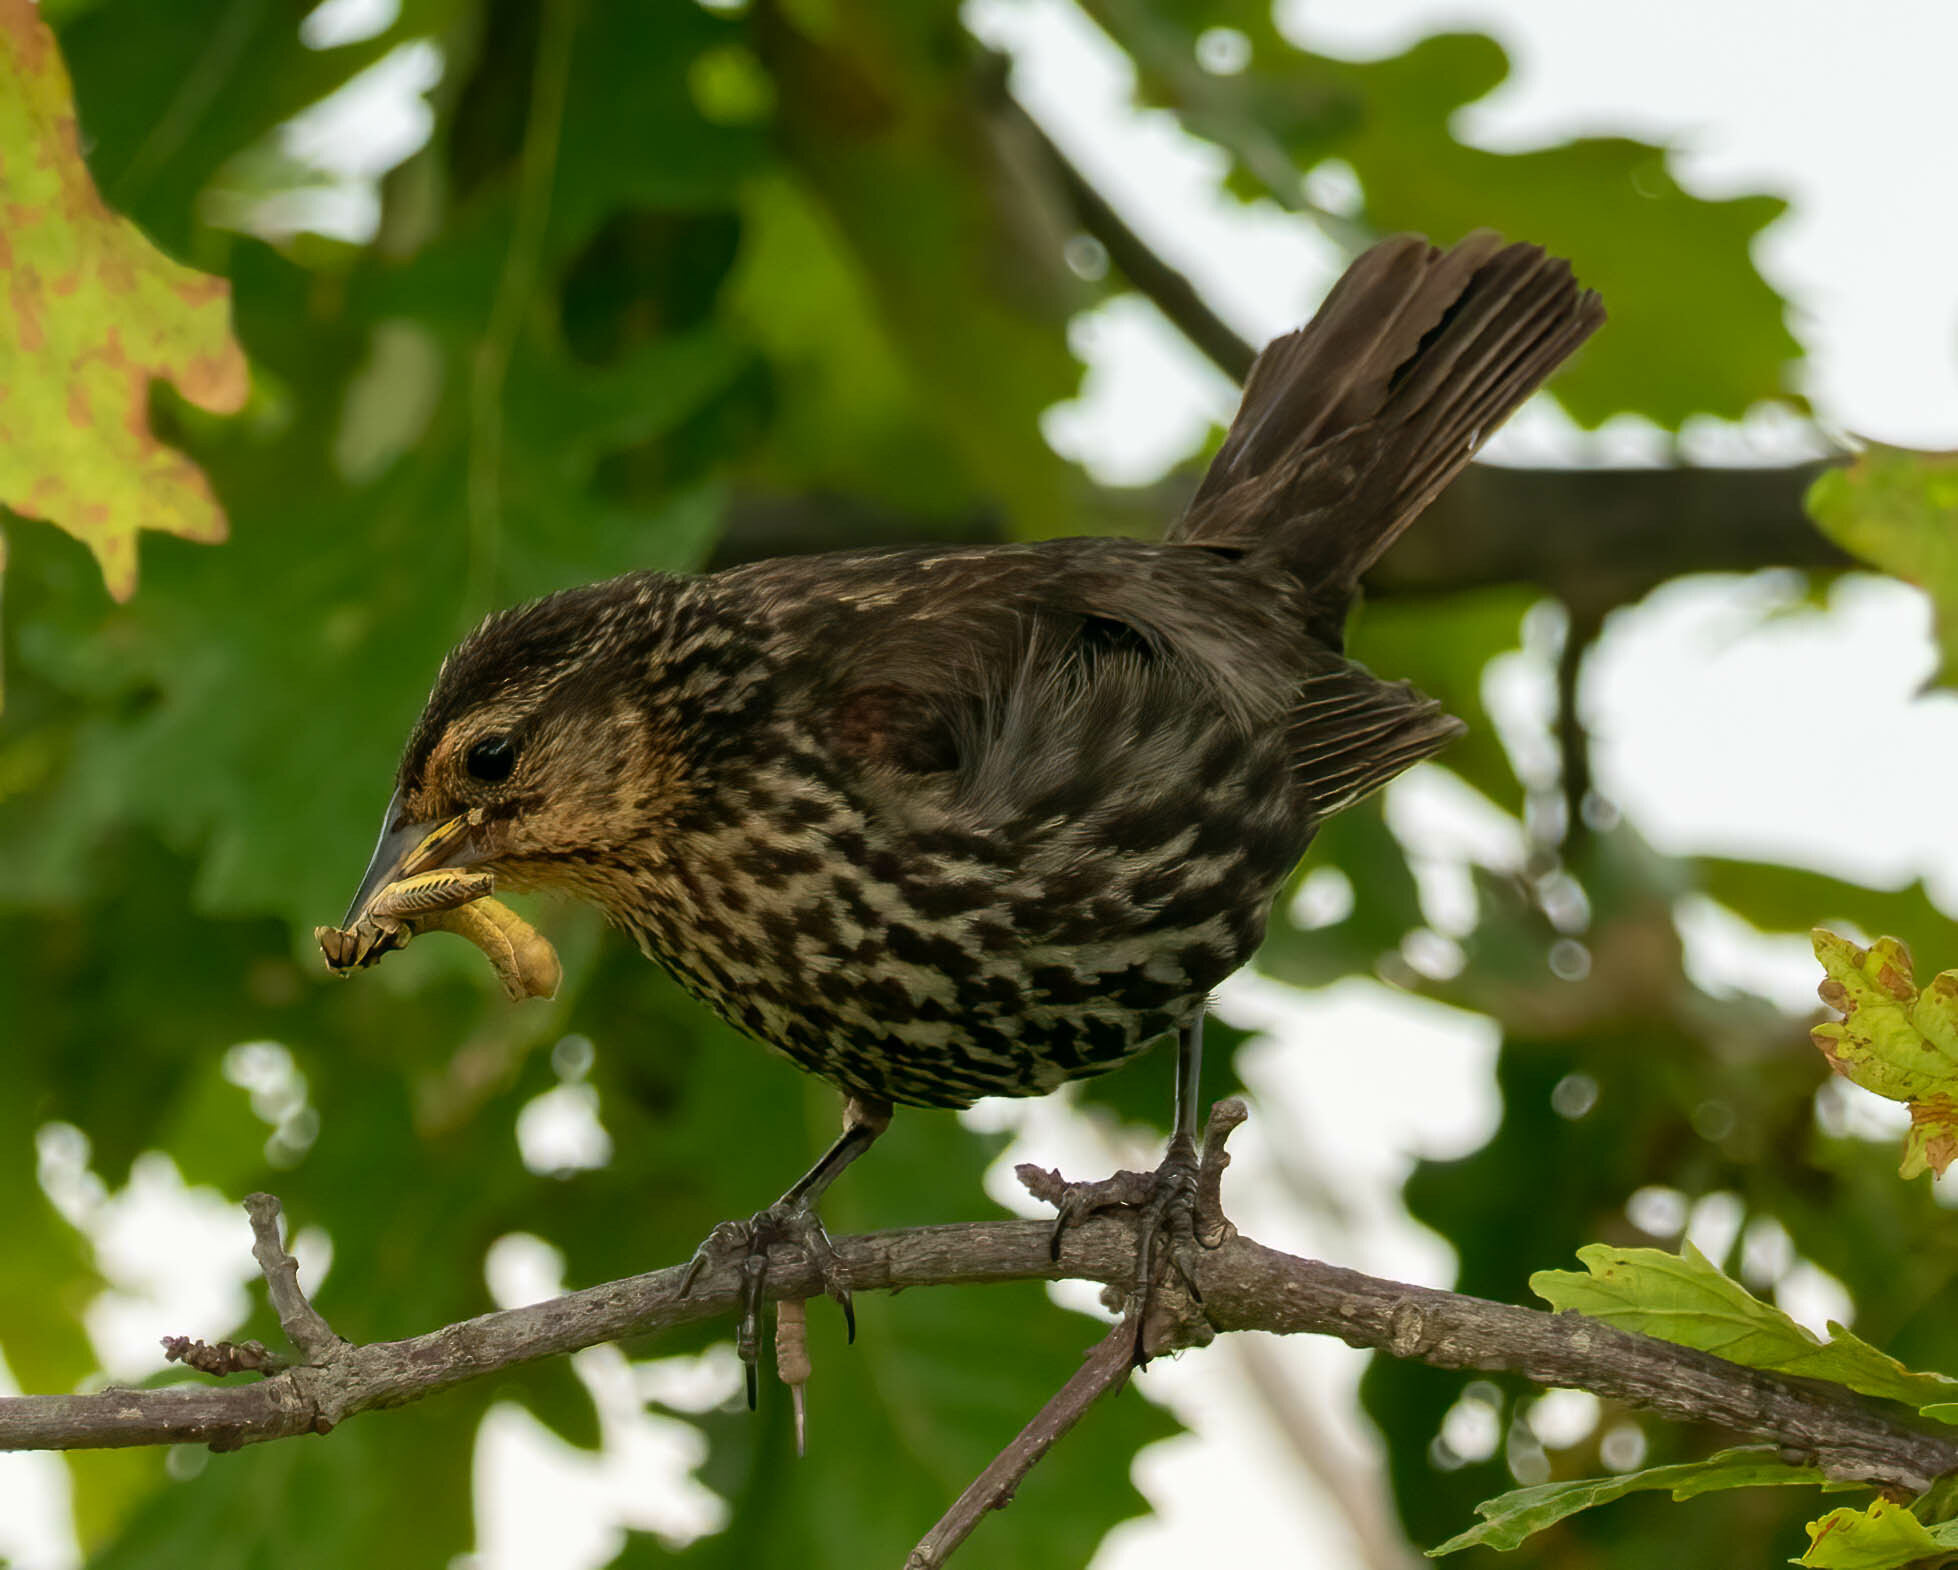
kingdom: Animalia
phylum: Chordata
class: Aves
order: Passeriformes
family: Icteridae
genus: Agelaius
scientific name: Agelaius phoeniceus
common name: Red-winged blackbird
